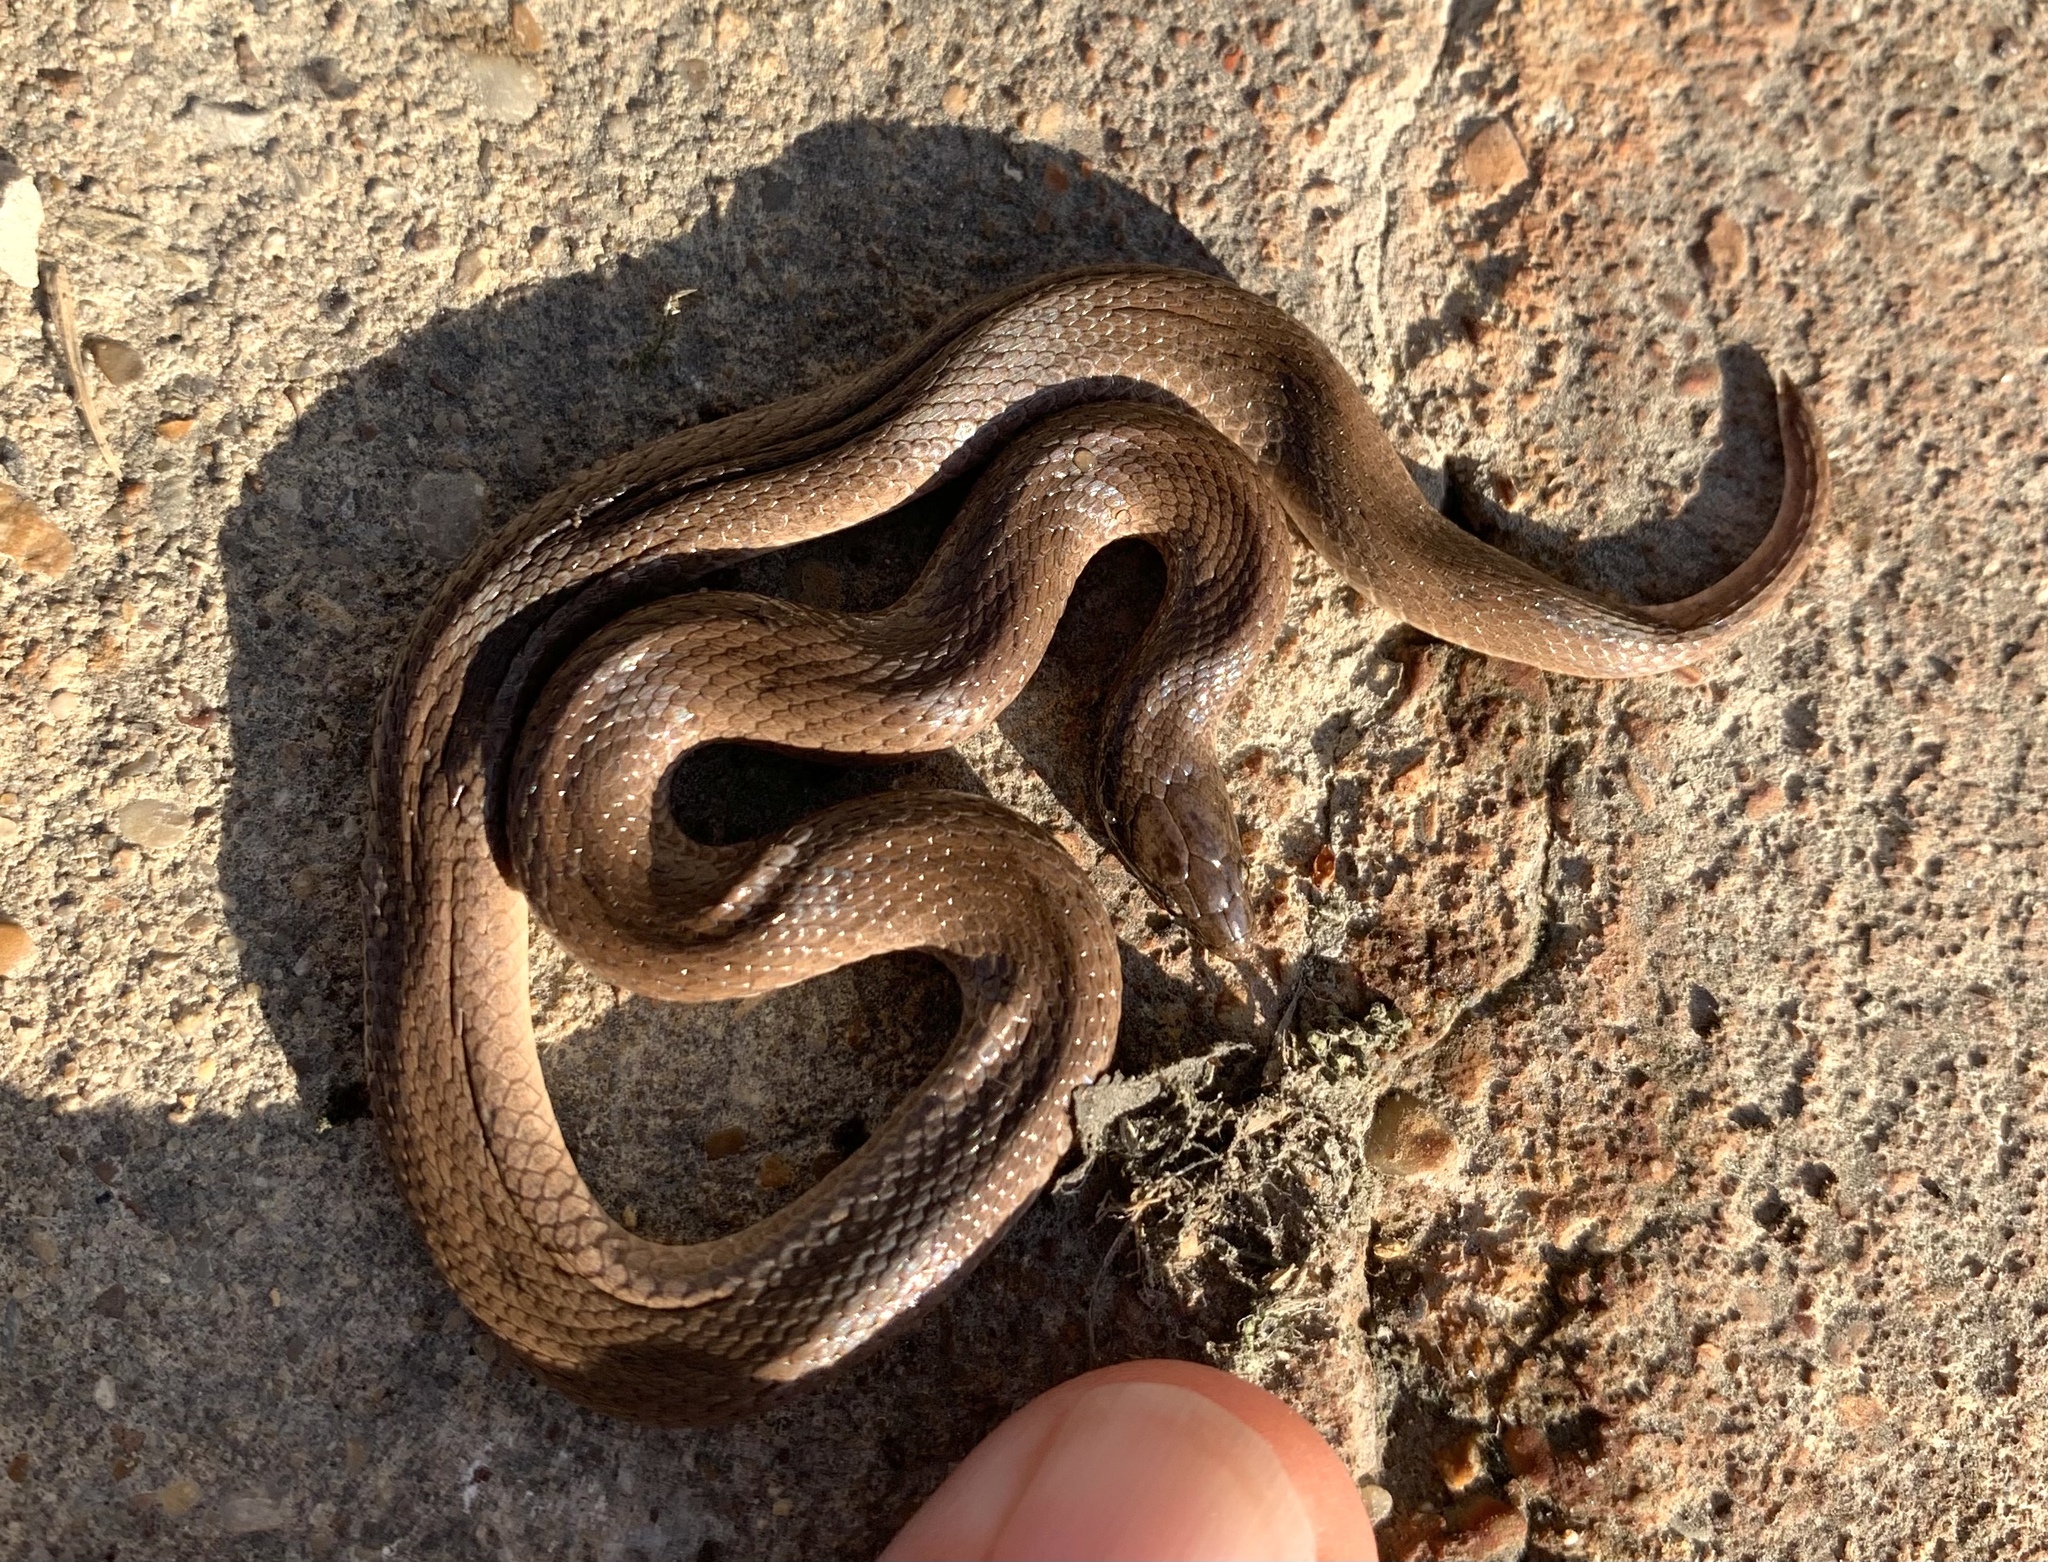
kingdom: Animalia
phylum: Chordata
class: Squamata
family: Colubridae
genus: Haldea
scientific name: Haldea striatula
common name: Rough earth snake
